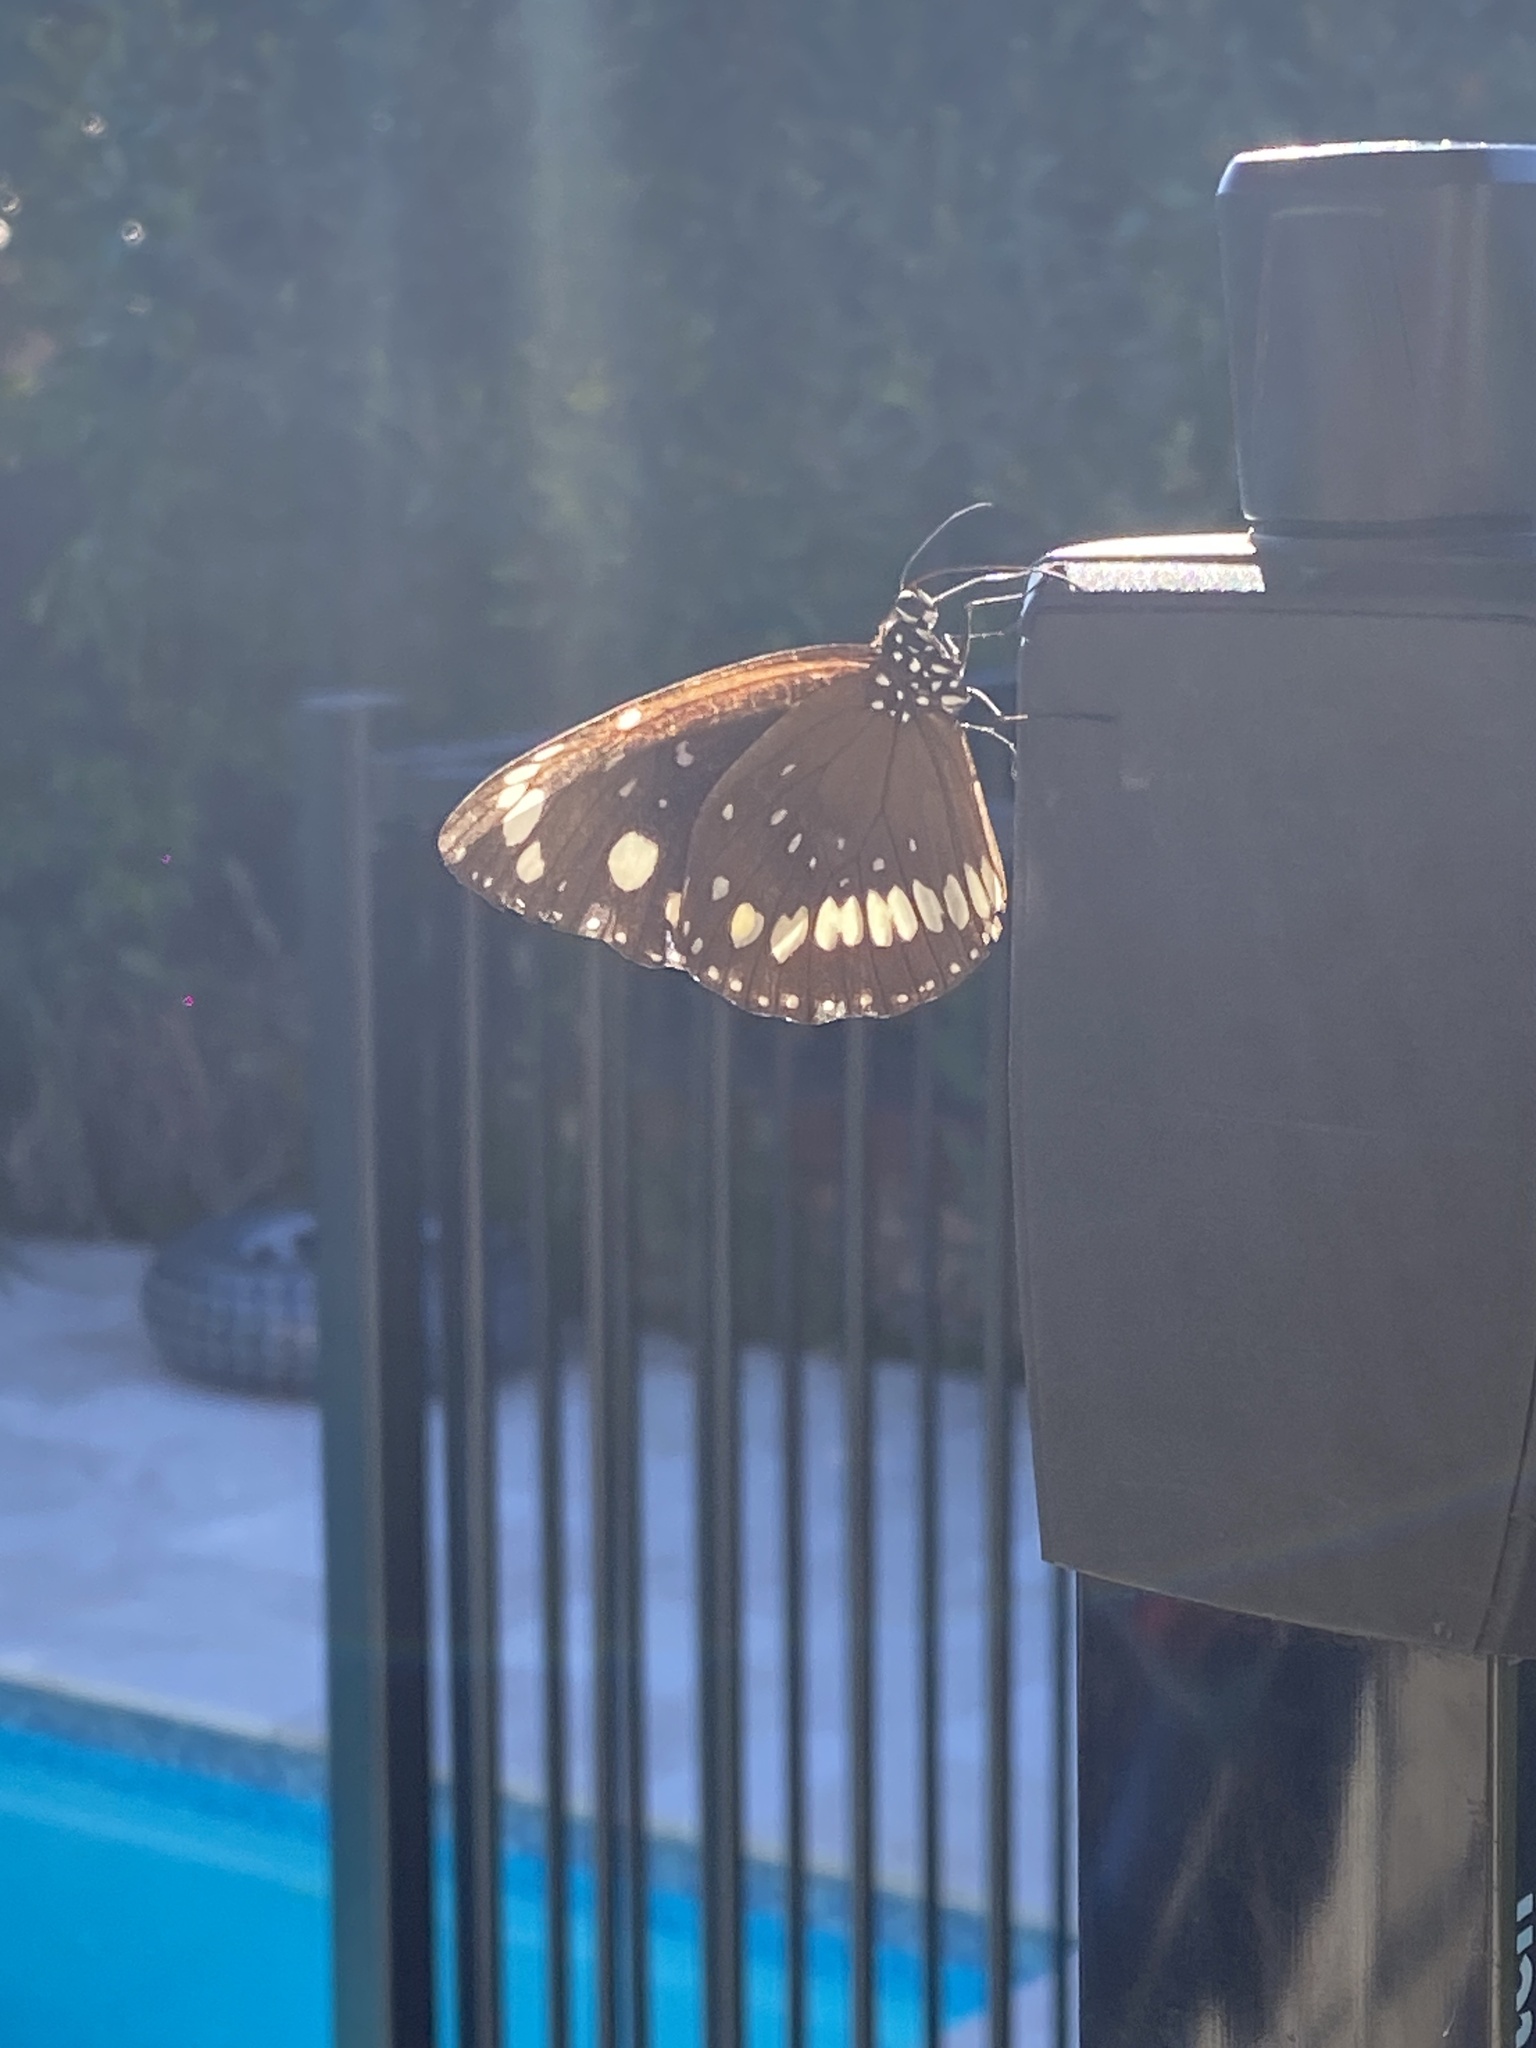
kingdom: Animalia
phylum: Arthropoda
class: Insecta
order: Lepidoptera
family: Nymphalidae
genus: Euploea
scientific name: Euploea core
